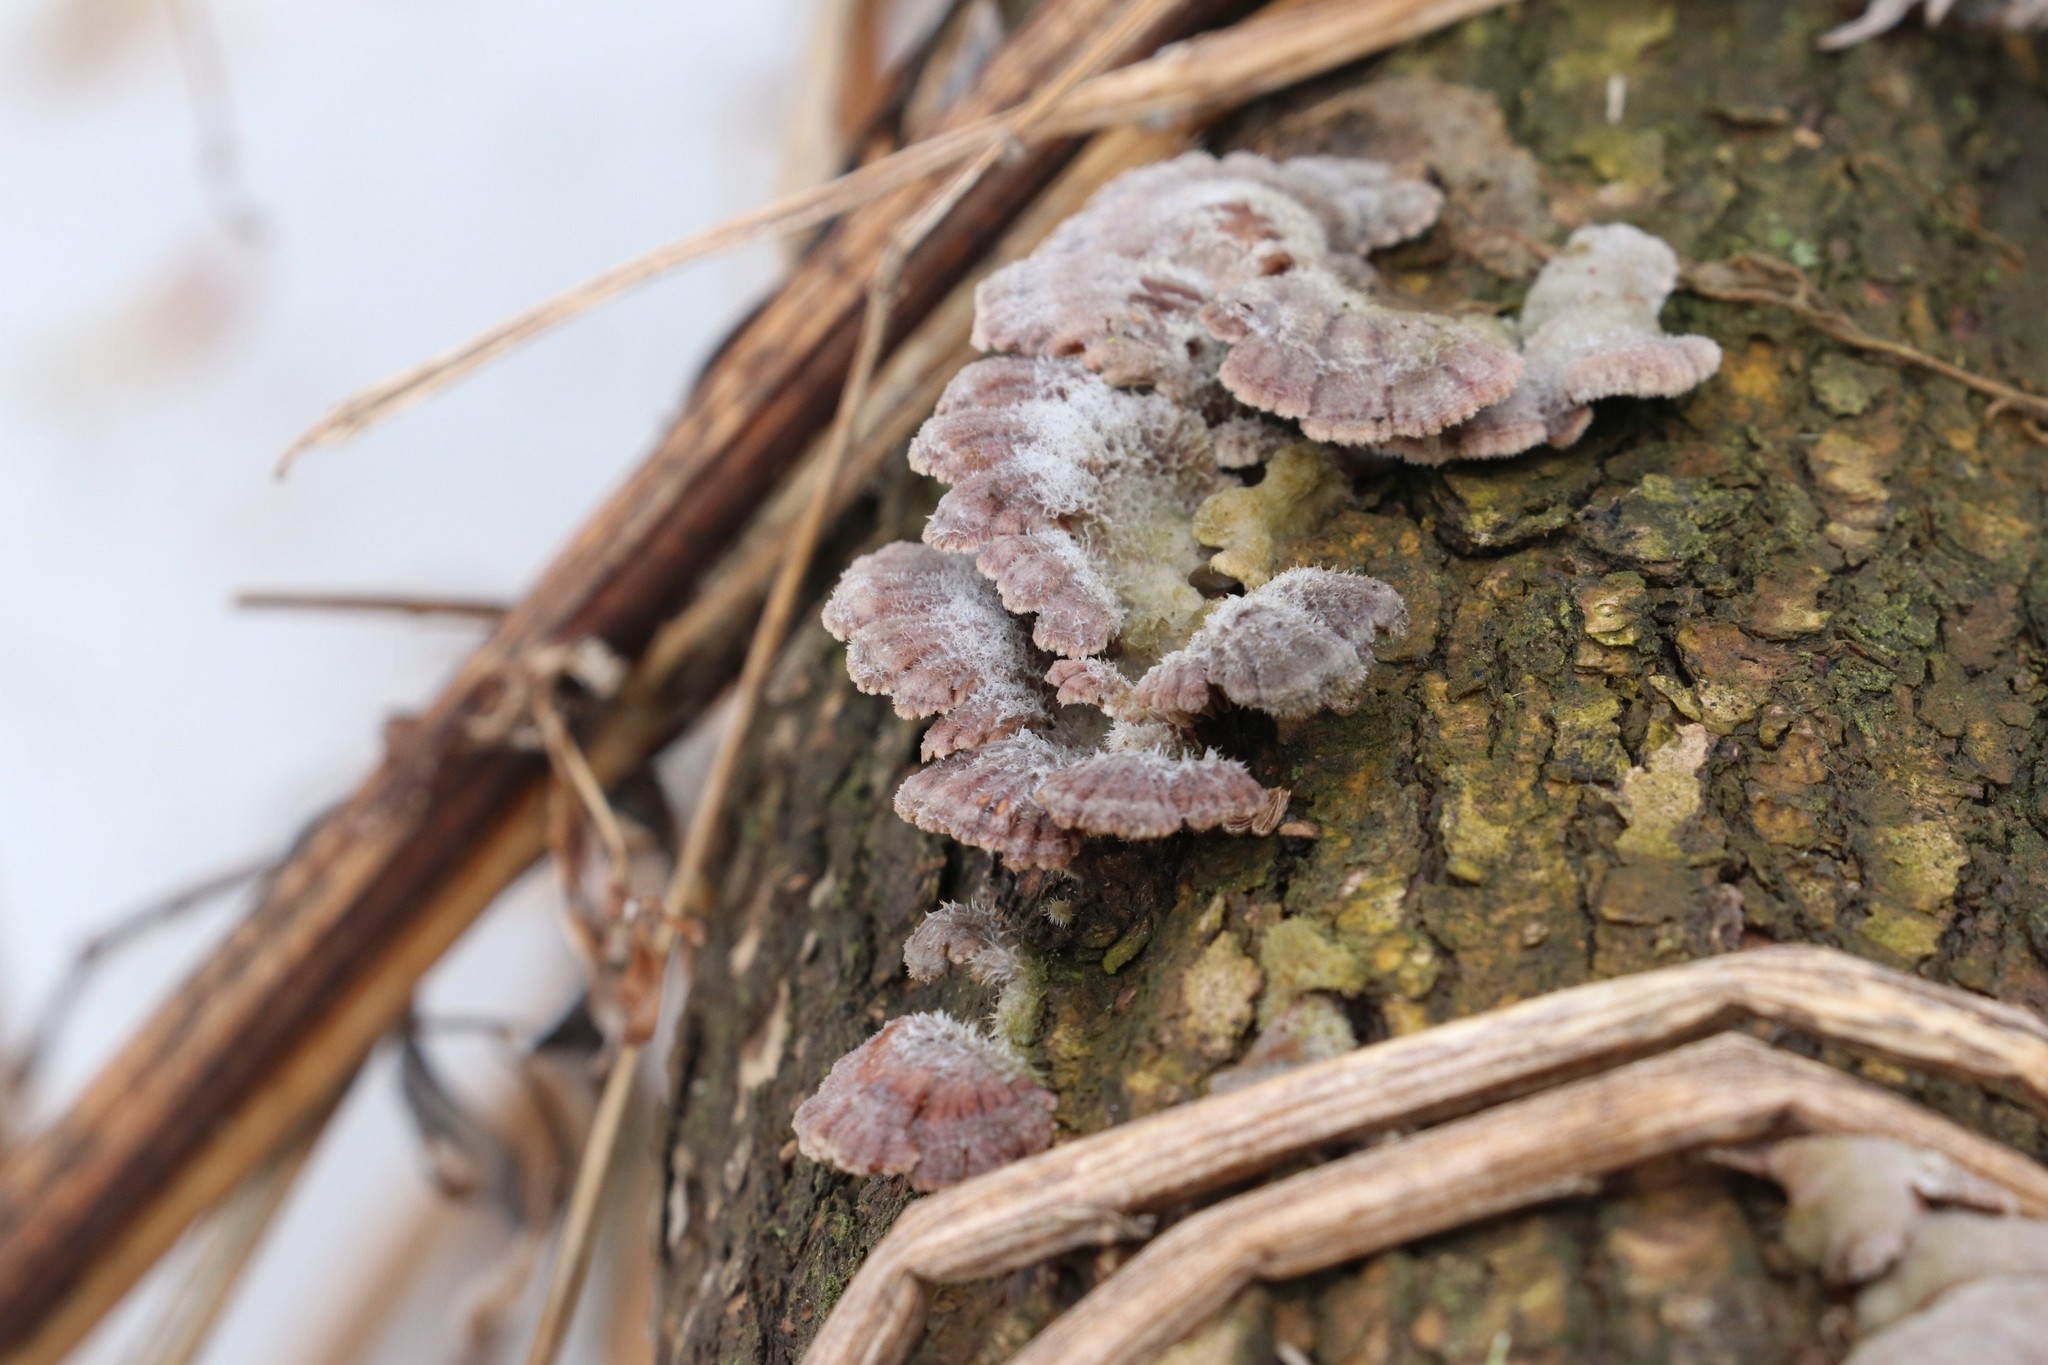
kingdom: Fungi
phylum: Basidiomycota
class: Agaricomycetes
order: Agaricales
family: Schizophyllaceae
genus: Schizophyllum
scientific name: Schizophyllum commune
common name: Common porecrust
